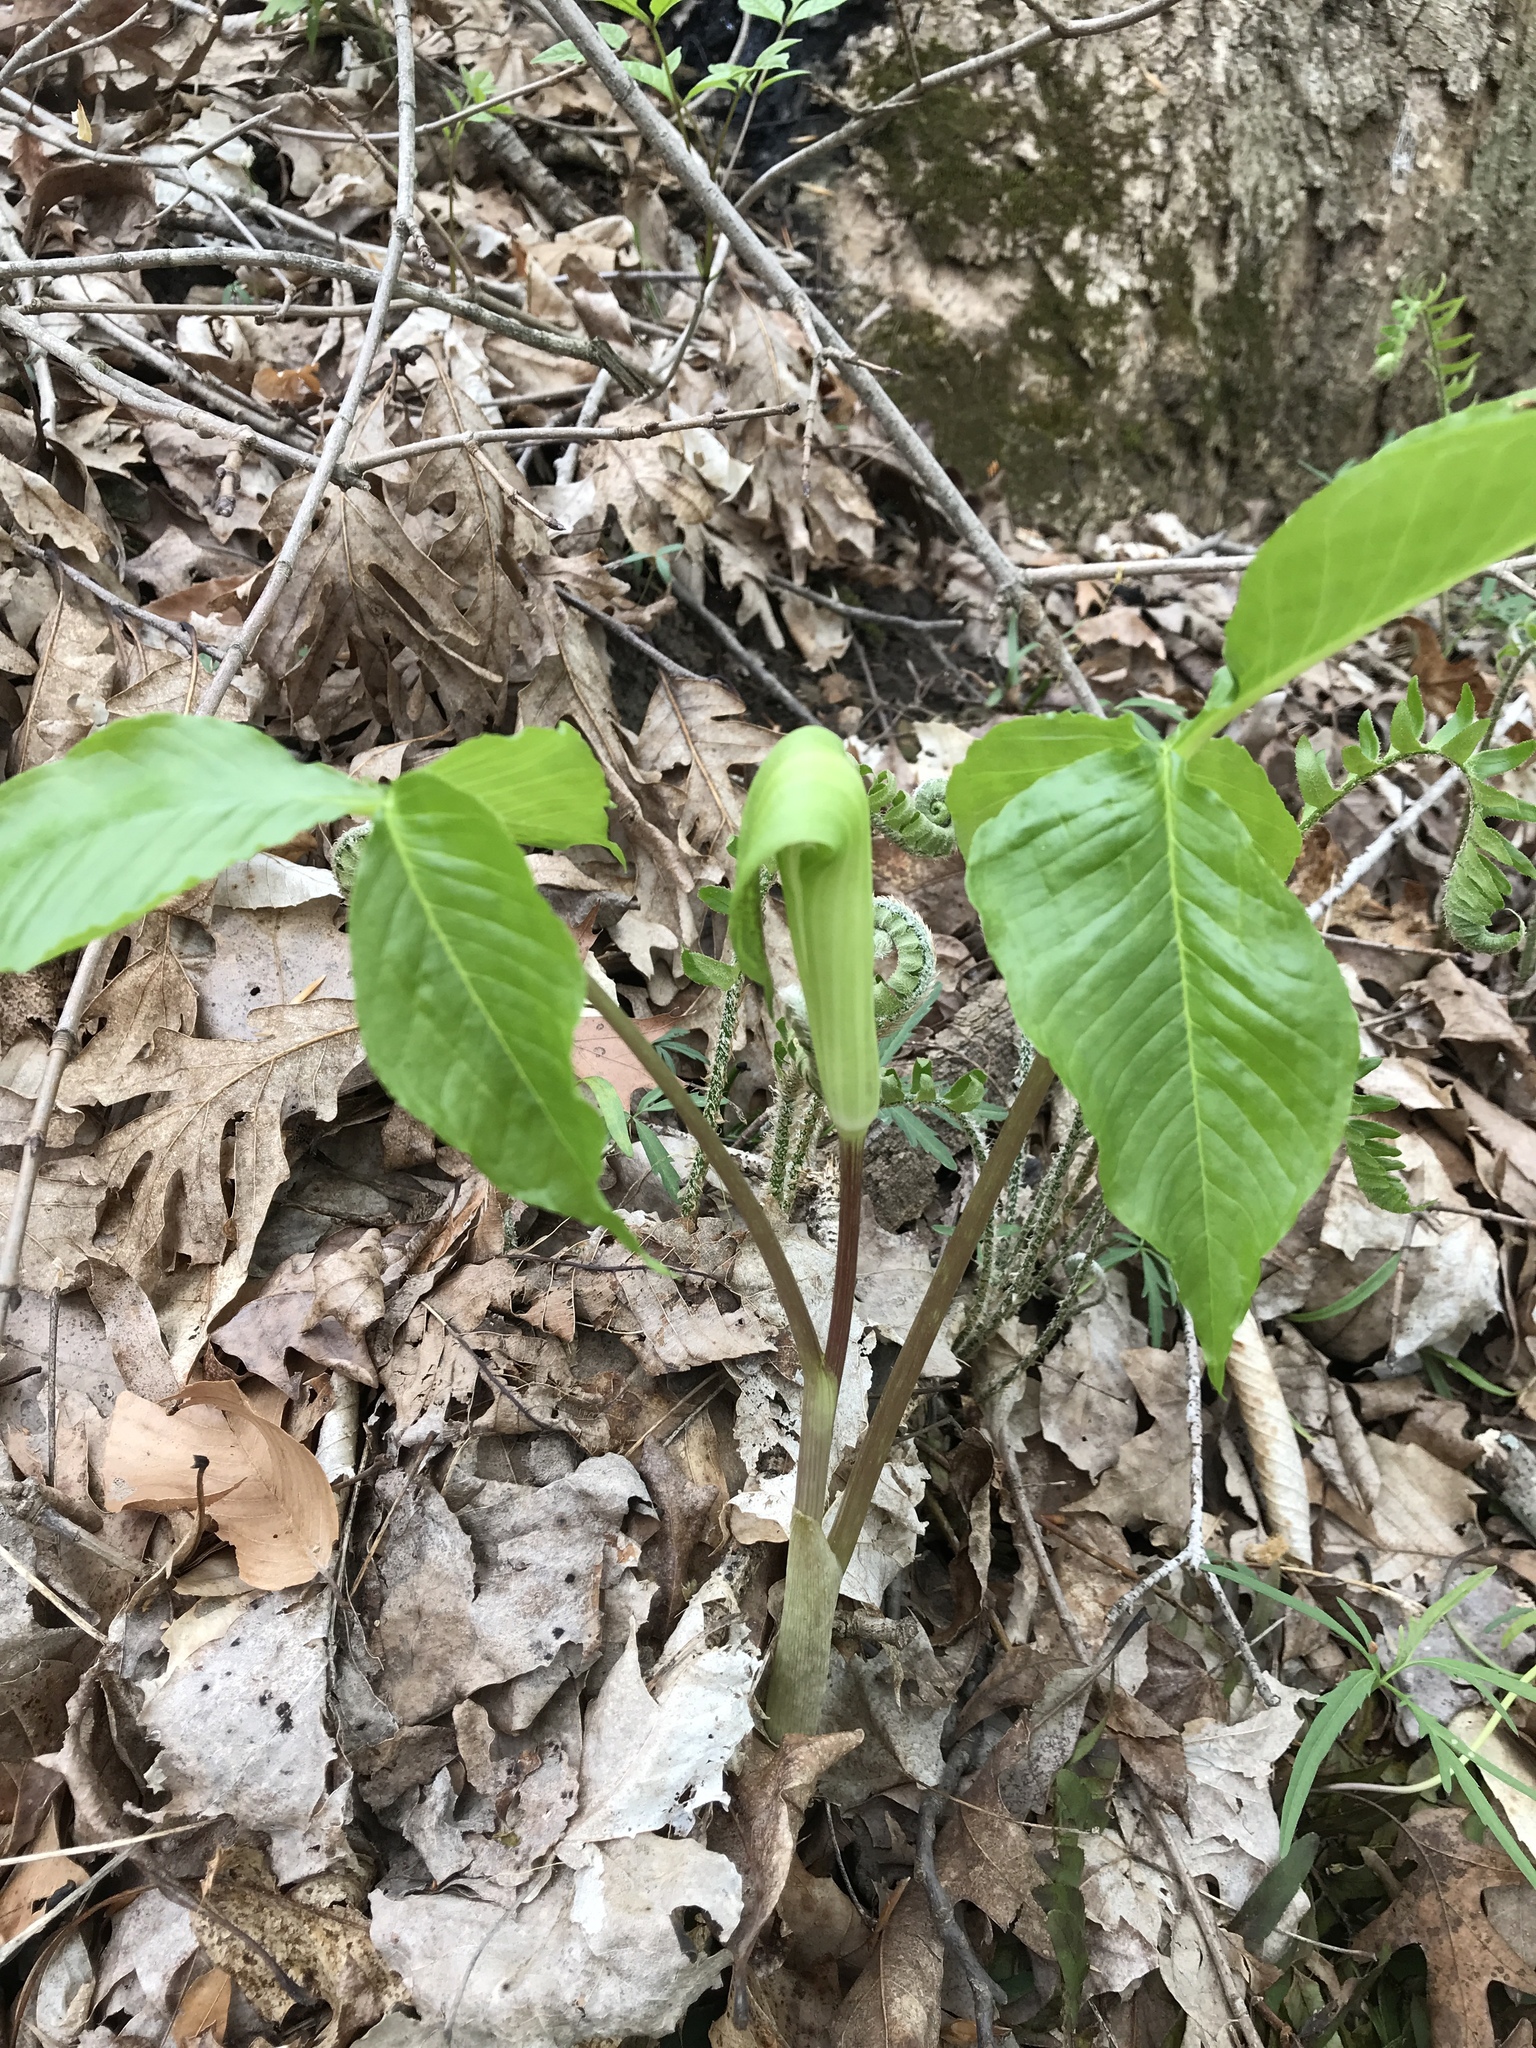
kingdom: Plantae
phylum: Tracheophyta
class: Liliopsida
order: Alismatales
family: Araceae
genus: Arisaema
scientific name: Arisaema triphyllum
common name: Jack-in-the-pulpit
